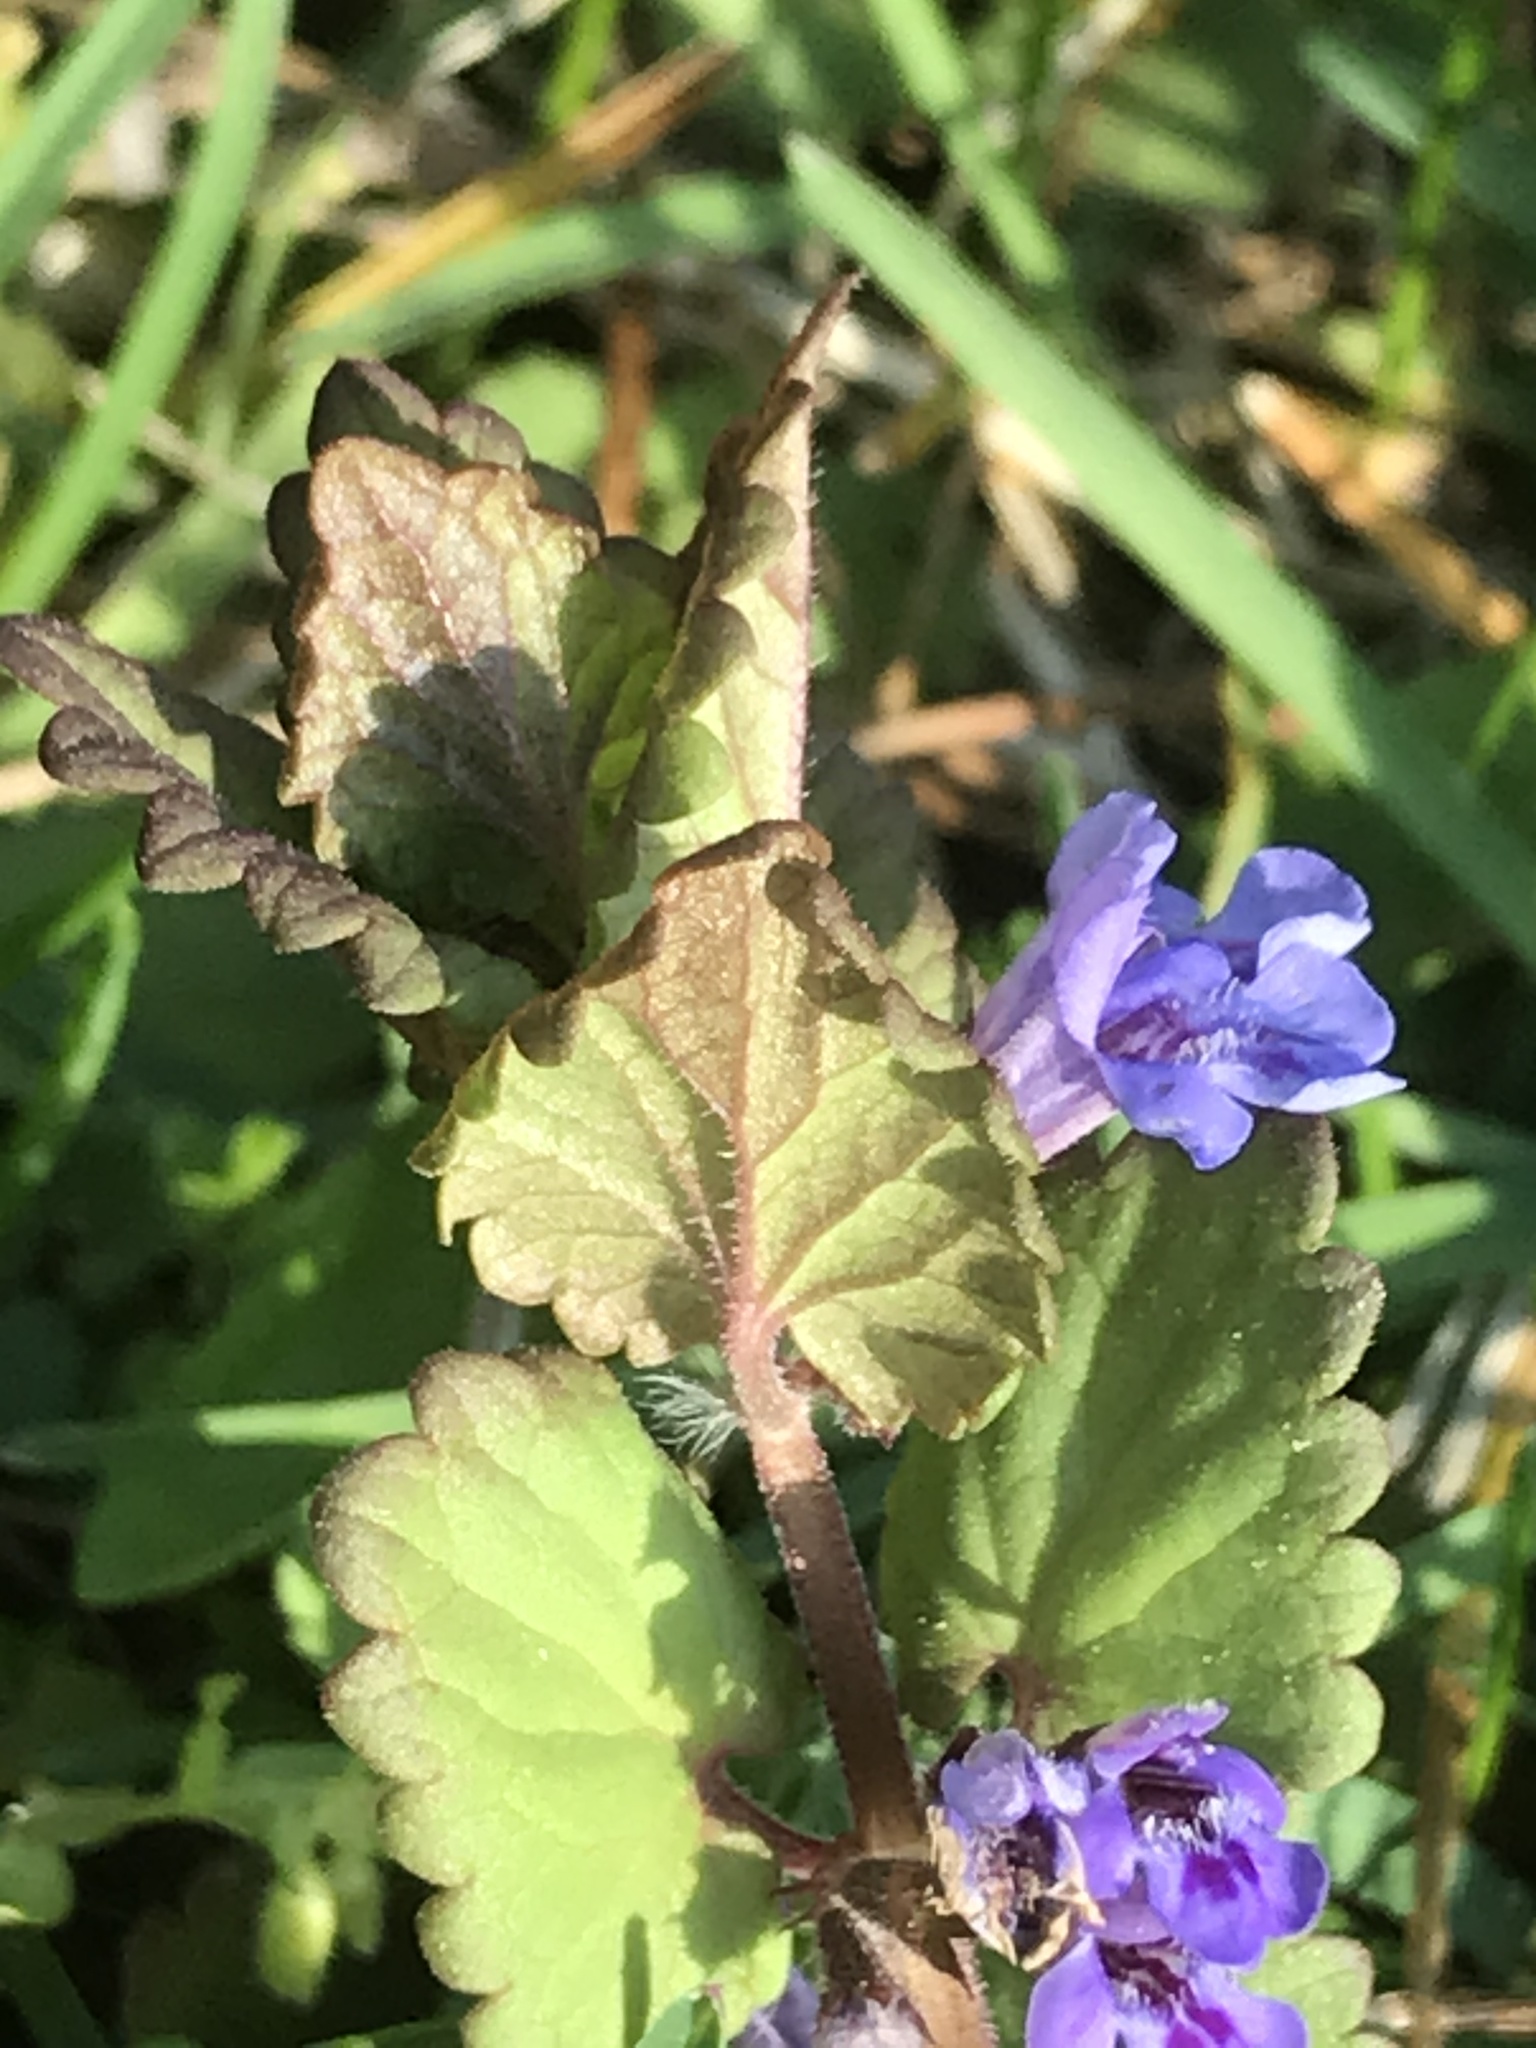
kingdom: Plantae
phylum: Tracheophyta
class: Magnoliopsida
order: Lamiales
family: Lamiaceae
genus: Glechoma
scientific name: Glechoma hederacea
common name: Ground ivy
